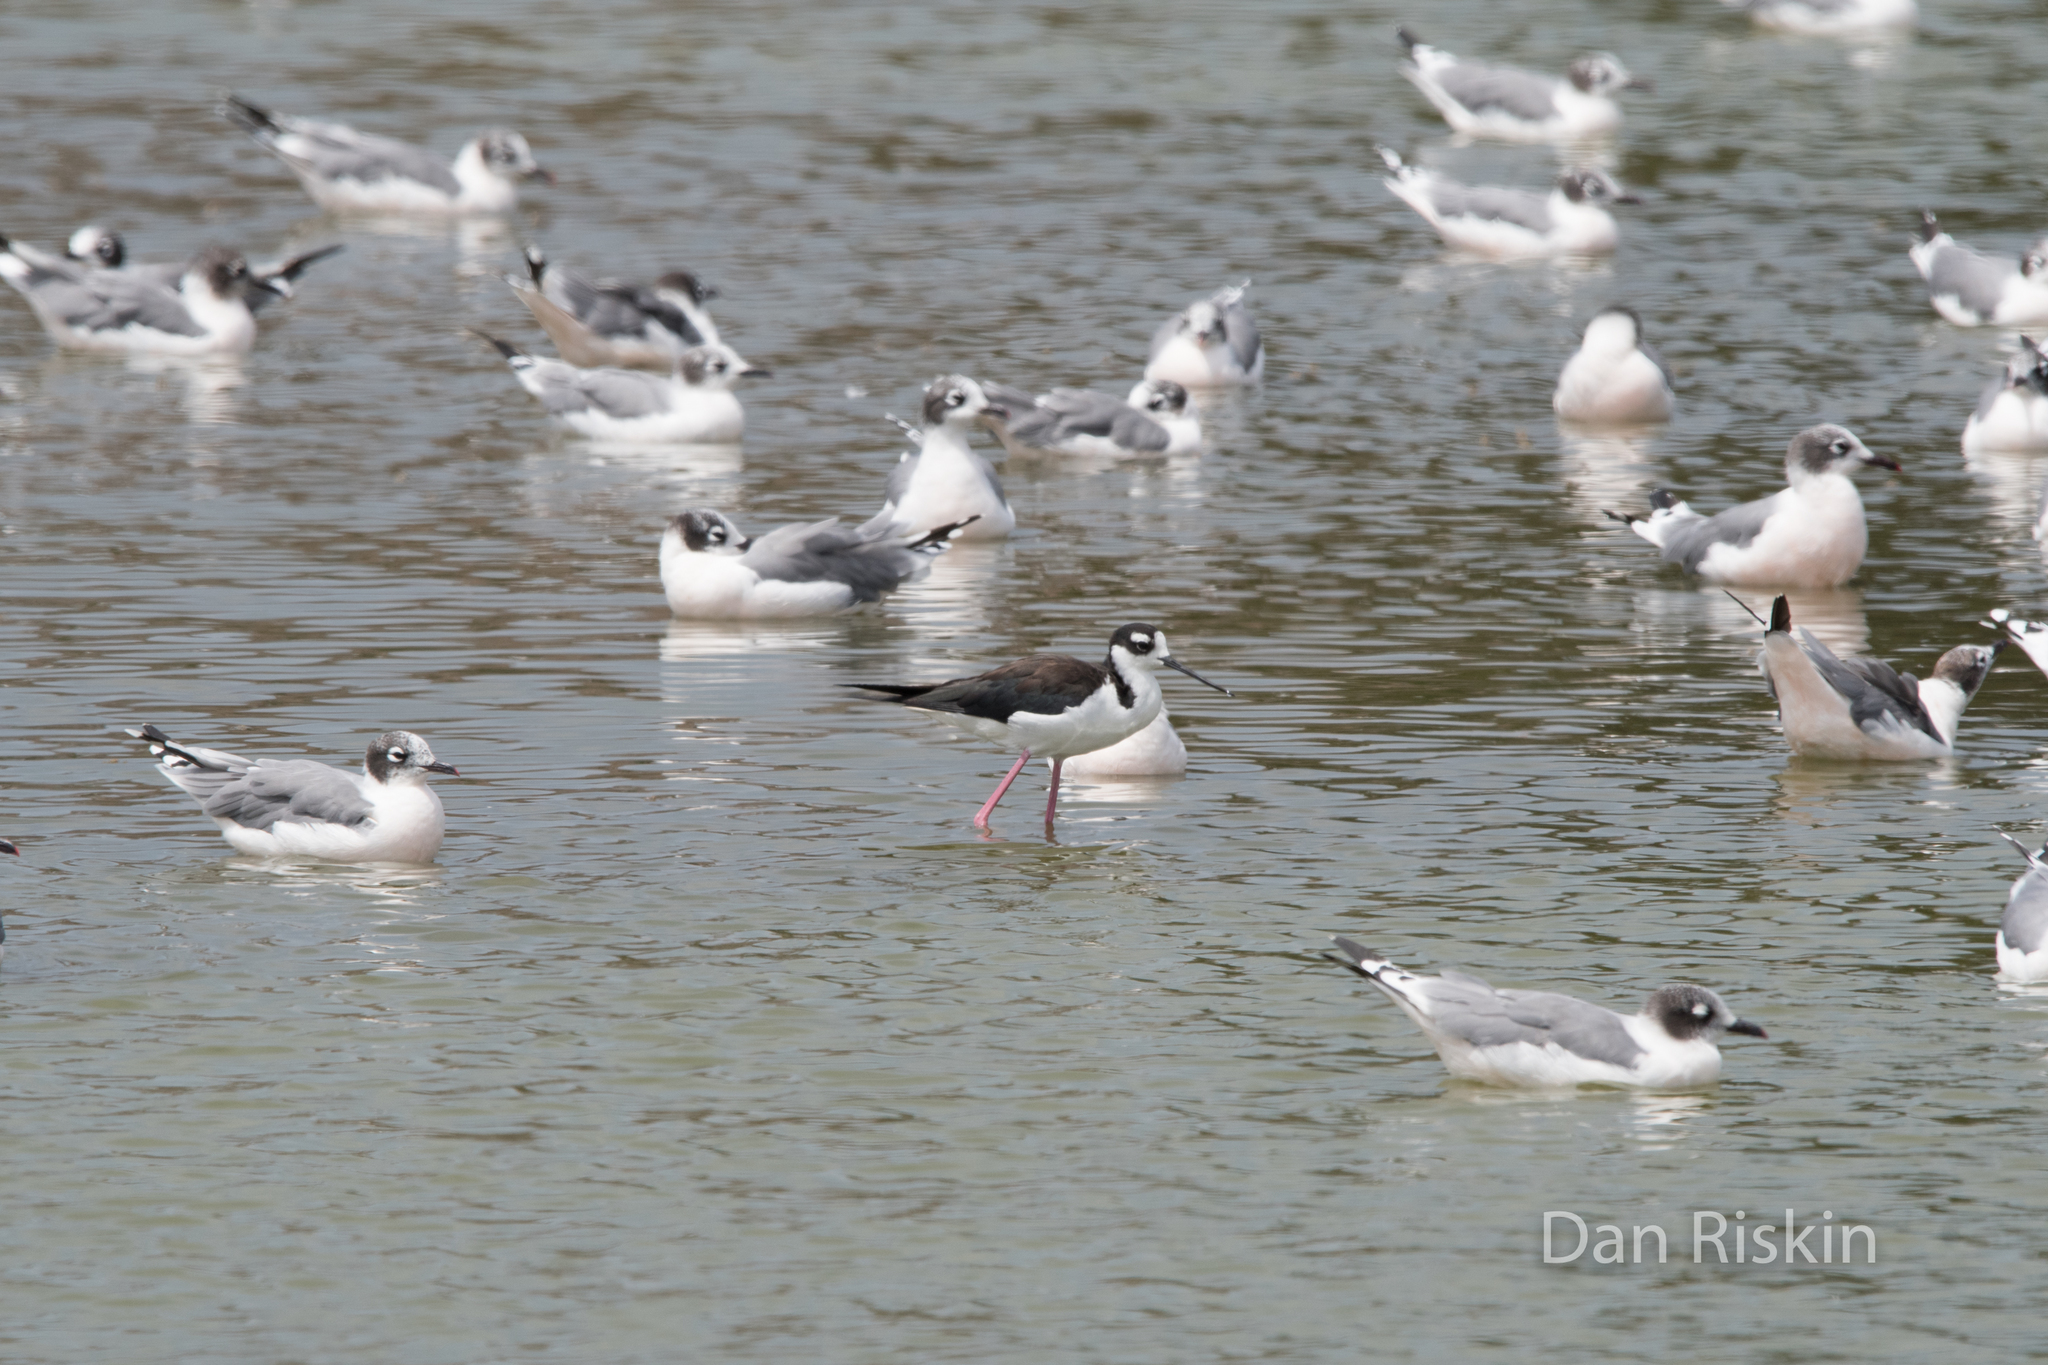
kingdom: Animalia
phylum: Chordata
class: Aves
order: Charadriiformes
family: Recurvirostridae
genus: Himantopus
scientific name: Himantopus mexicanus
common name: Black-necked stilt
